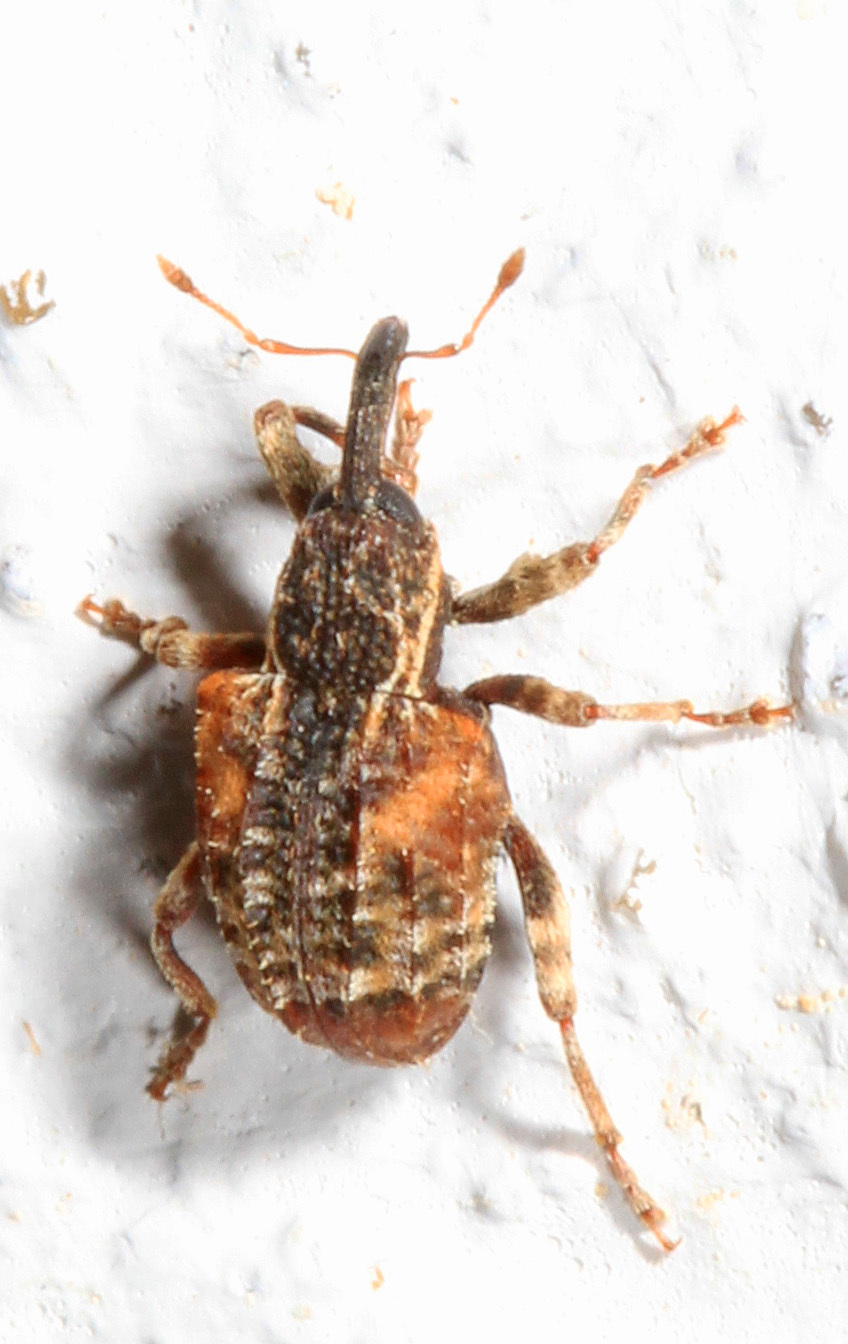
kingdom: Animalia
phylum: Arthropoda
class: Insecta
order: Coleoptera
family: Curculionidae
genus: Conotrachelus
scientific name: Conotrachelus anaglypticus
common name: Cambium curculio
